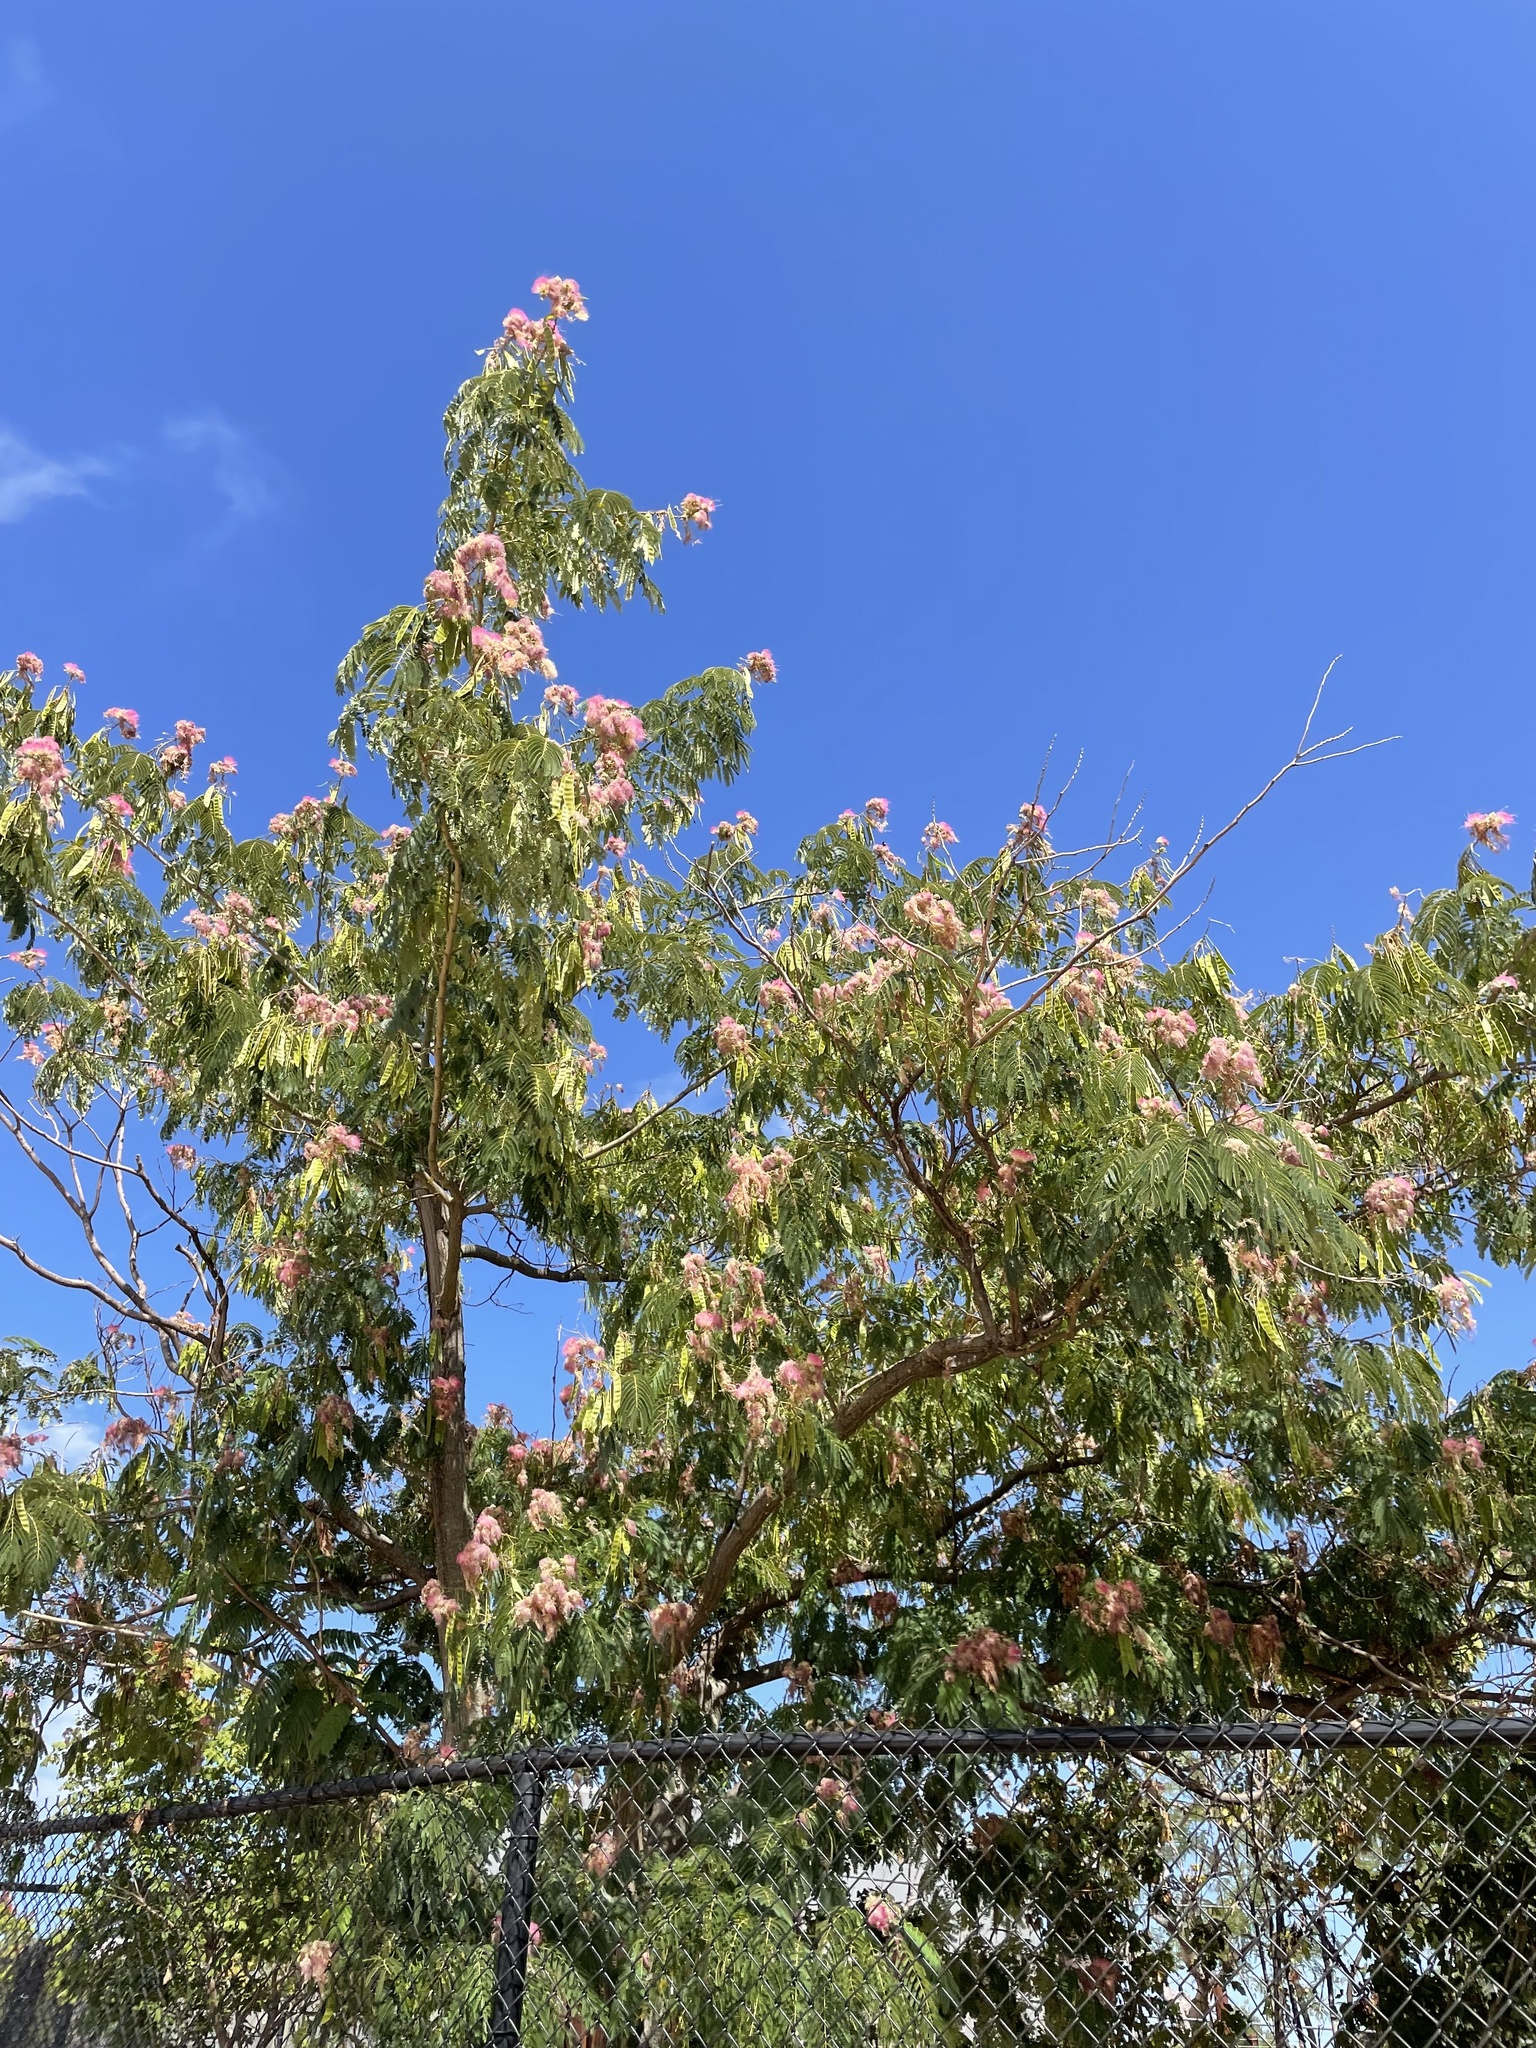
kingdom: Plantae
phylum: Tracheophyta
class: Magnoliopsida
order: Fabales
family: Fabaceae
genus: Albizia
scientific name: Albizia julibrissin
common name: Silktree
